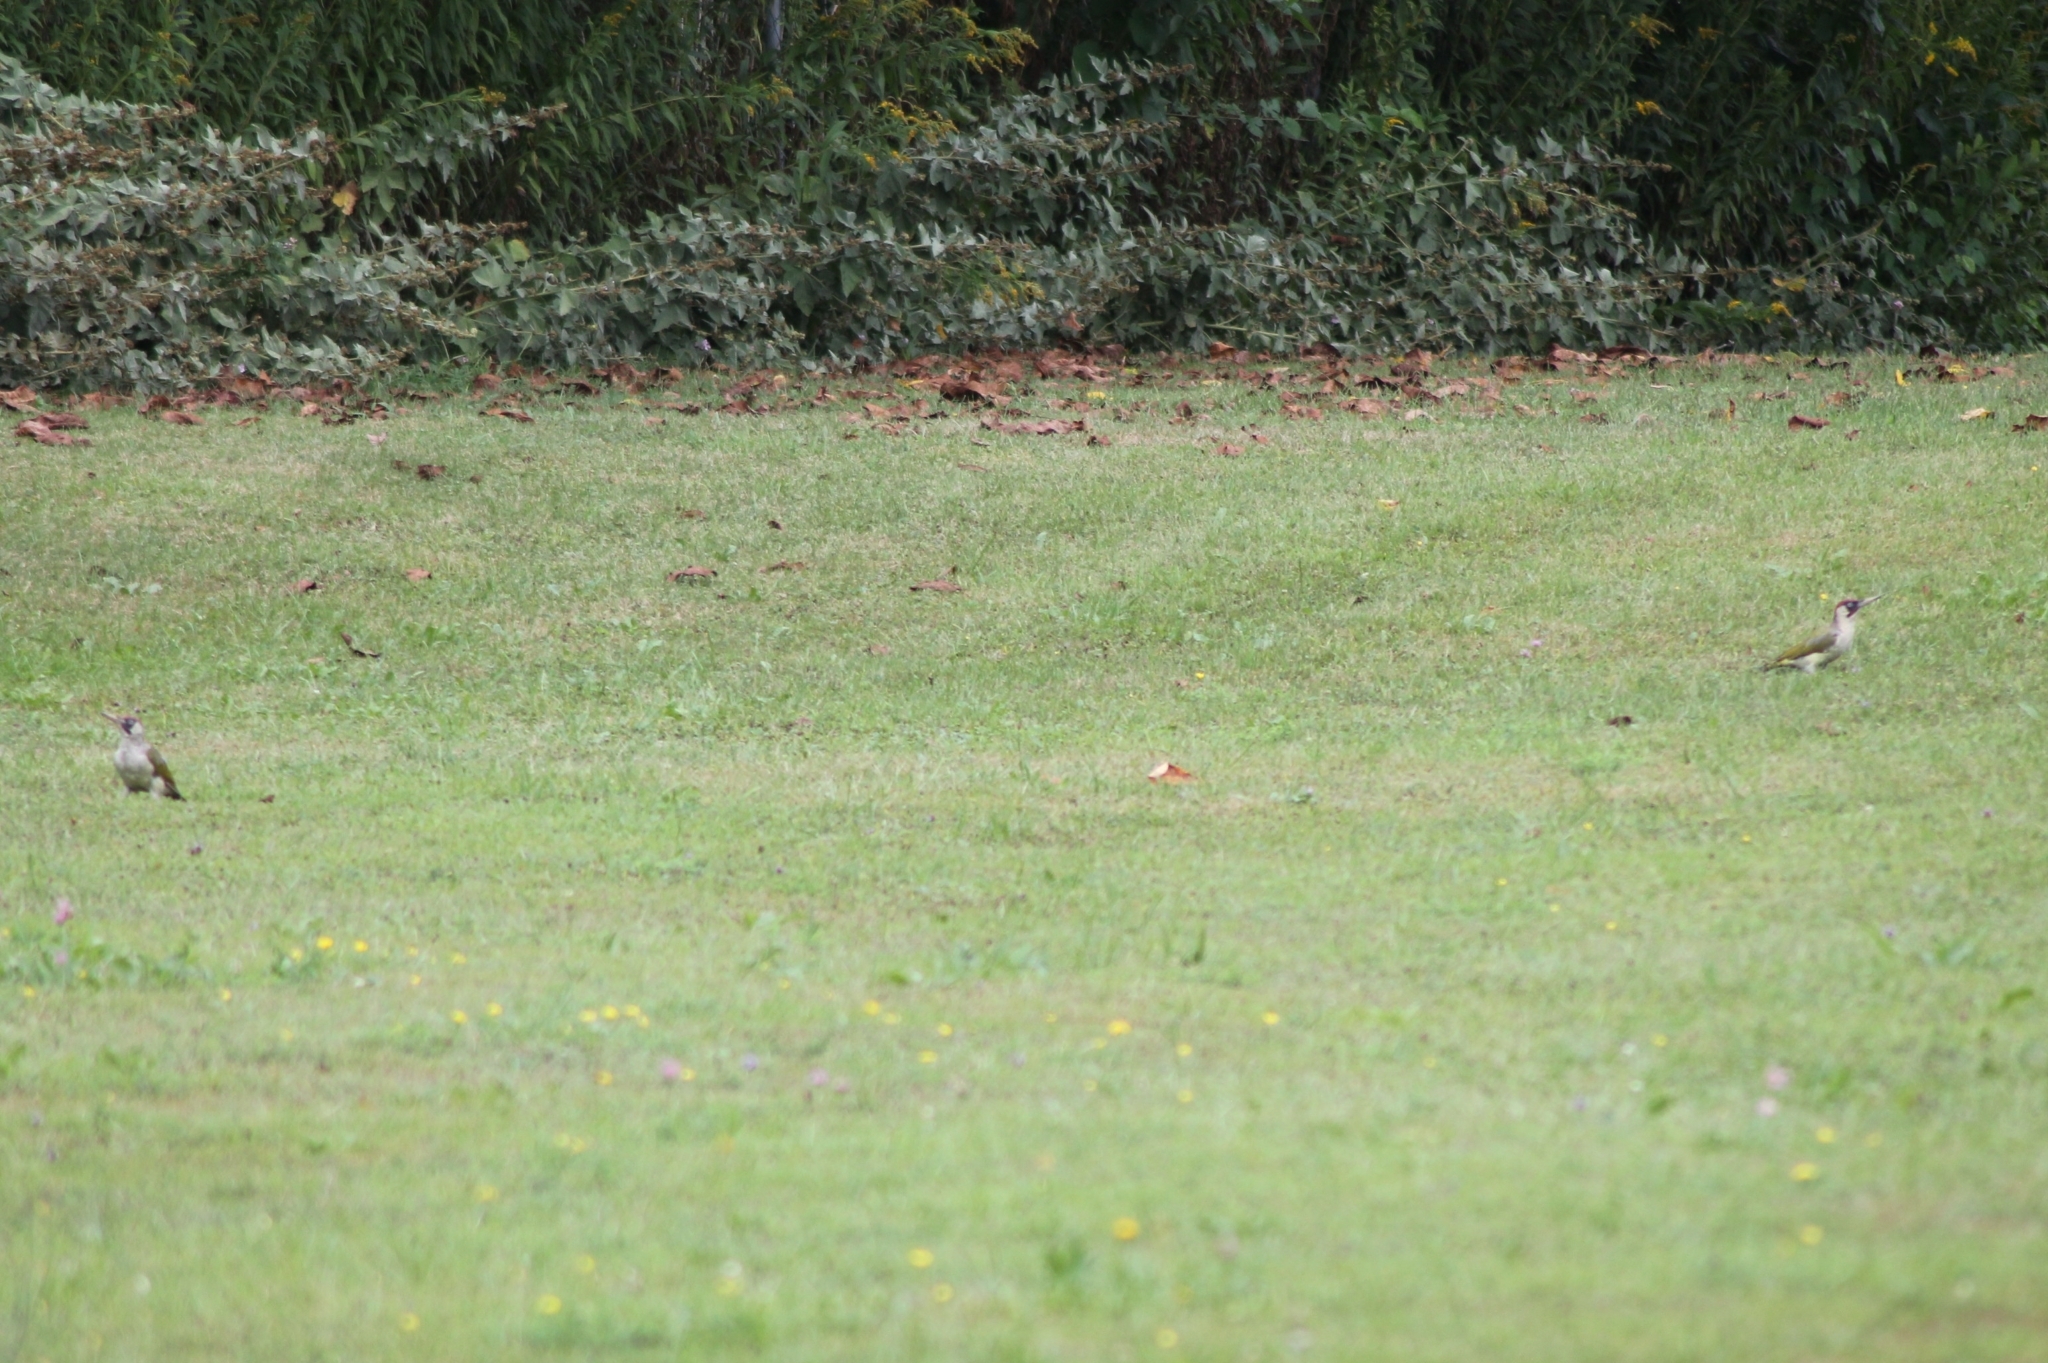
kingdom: Animalia
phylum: Chordata
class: Aves
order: Piciformes
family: Picidae
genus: Picus
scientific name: Picus viridis
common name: European green woodpecker
